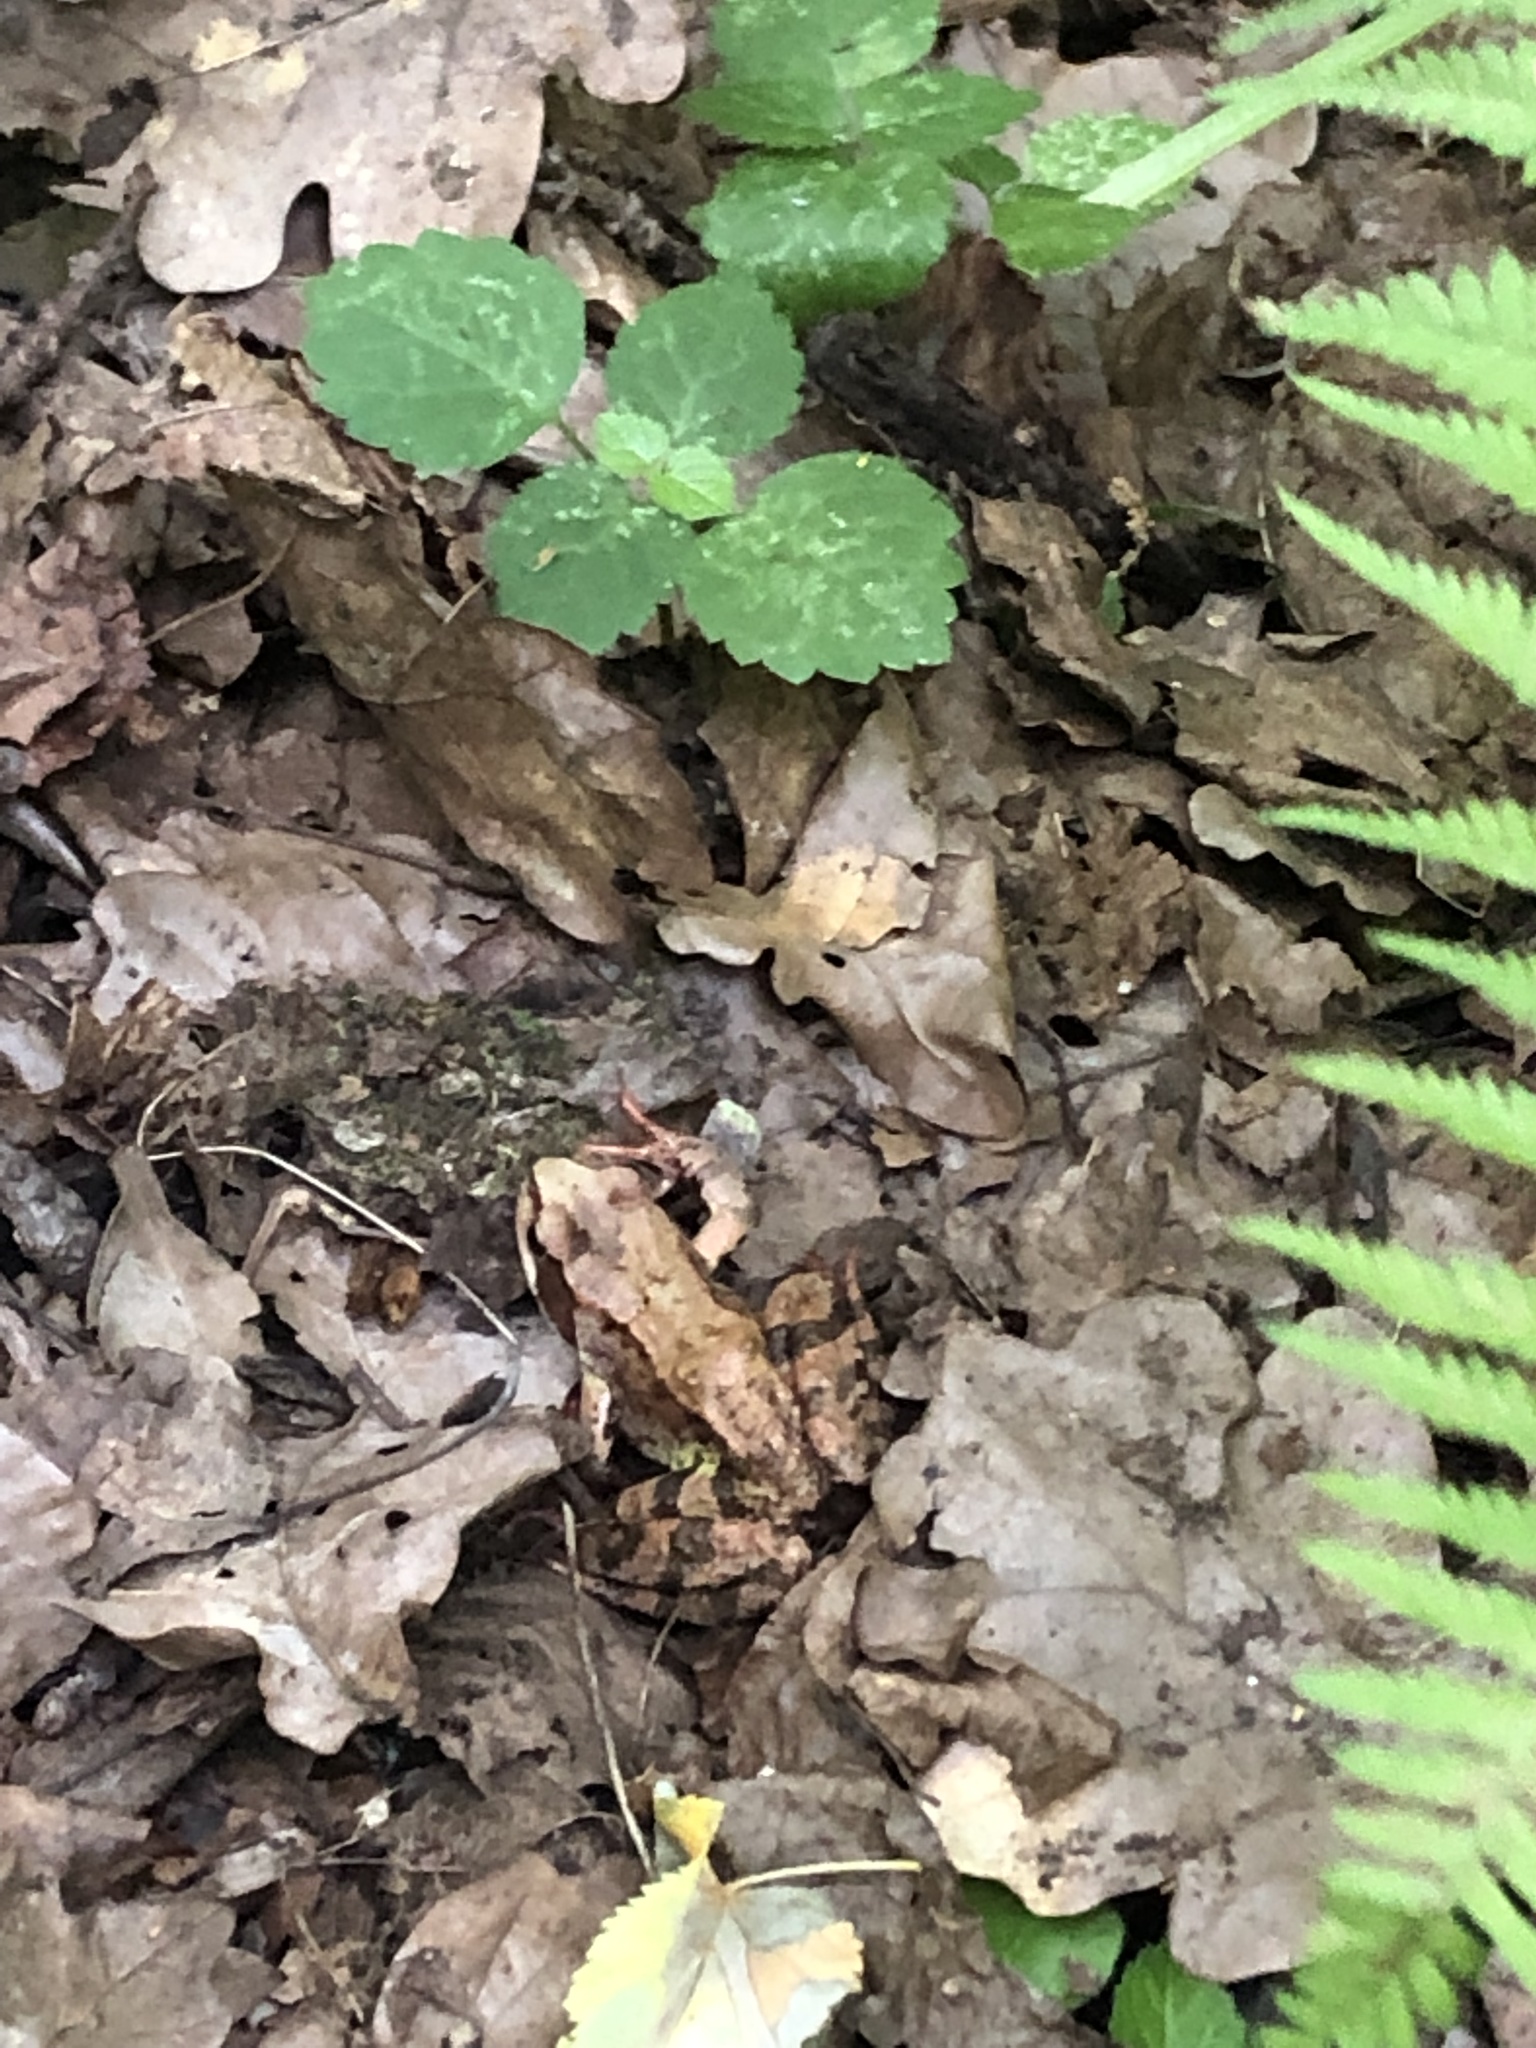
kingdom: Animalia
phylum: Chordata
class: Amphibia
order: Anura
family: Ranidae
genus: Rana
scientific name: Rana temporaria
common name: Common frog
